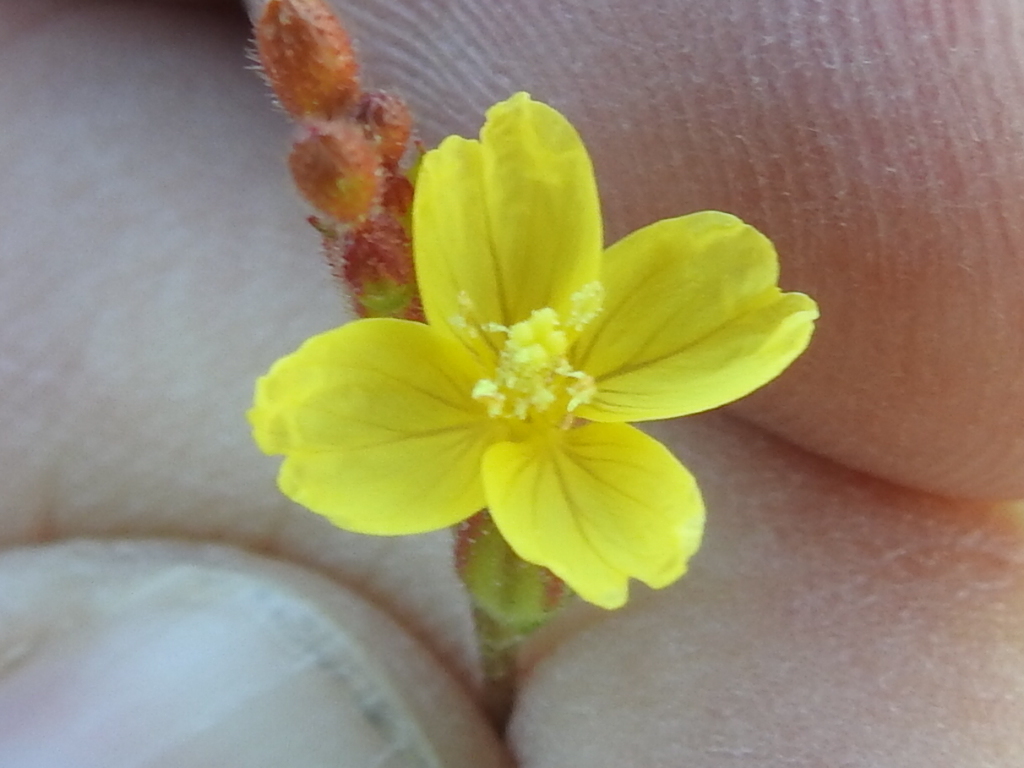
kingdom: Plantae
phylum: Tracheophyta
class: Magnoliopsida
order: Myrtales
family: Onagraceae
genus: Oenothera
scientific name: Oenothera spachiana
